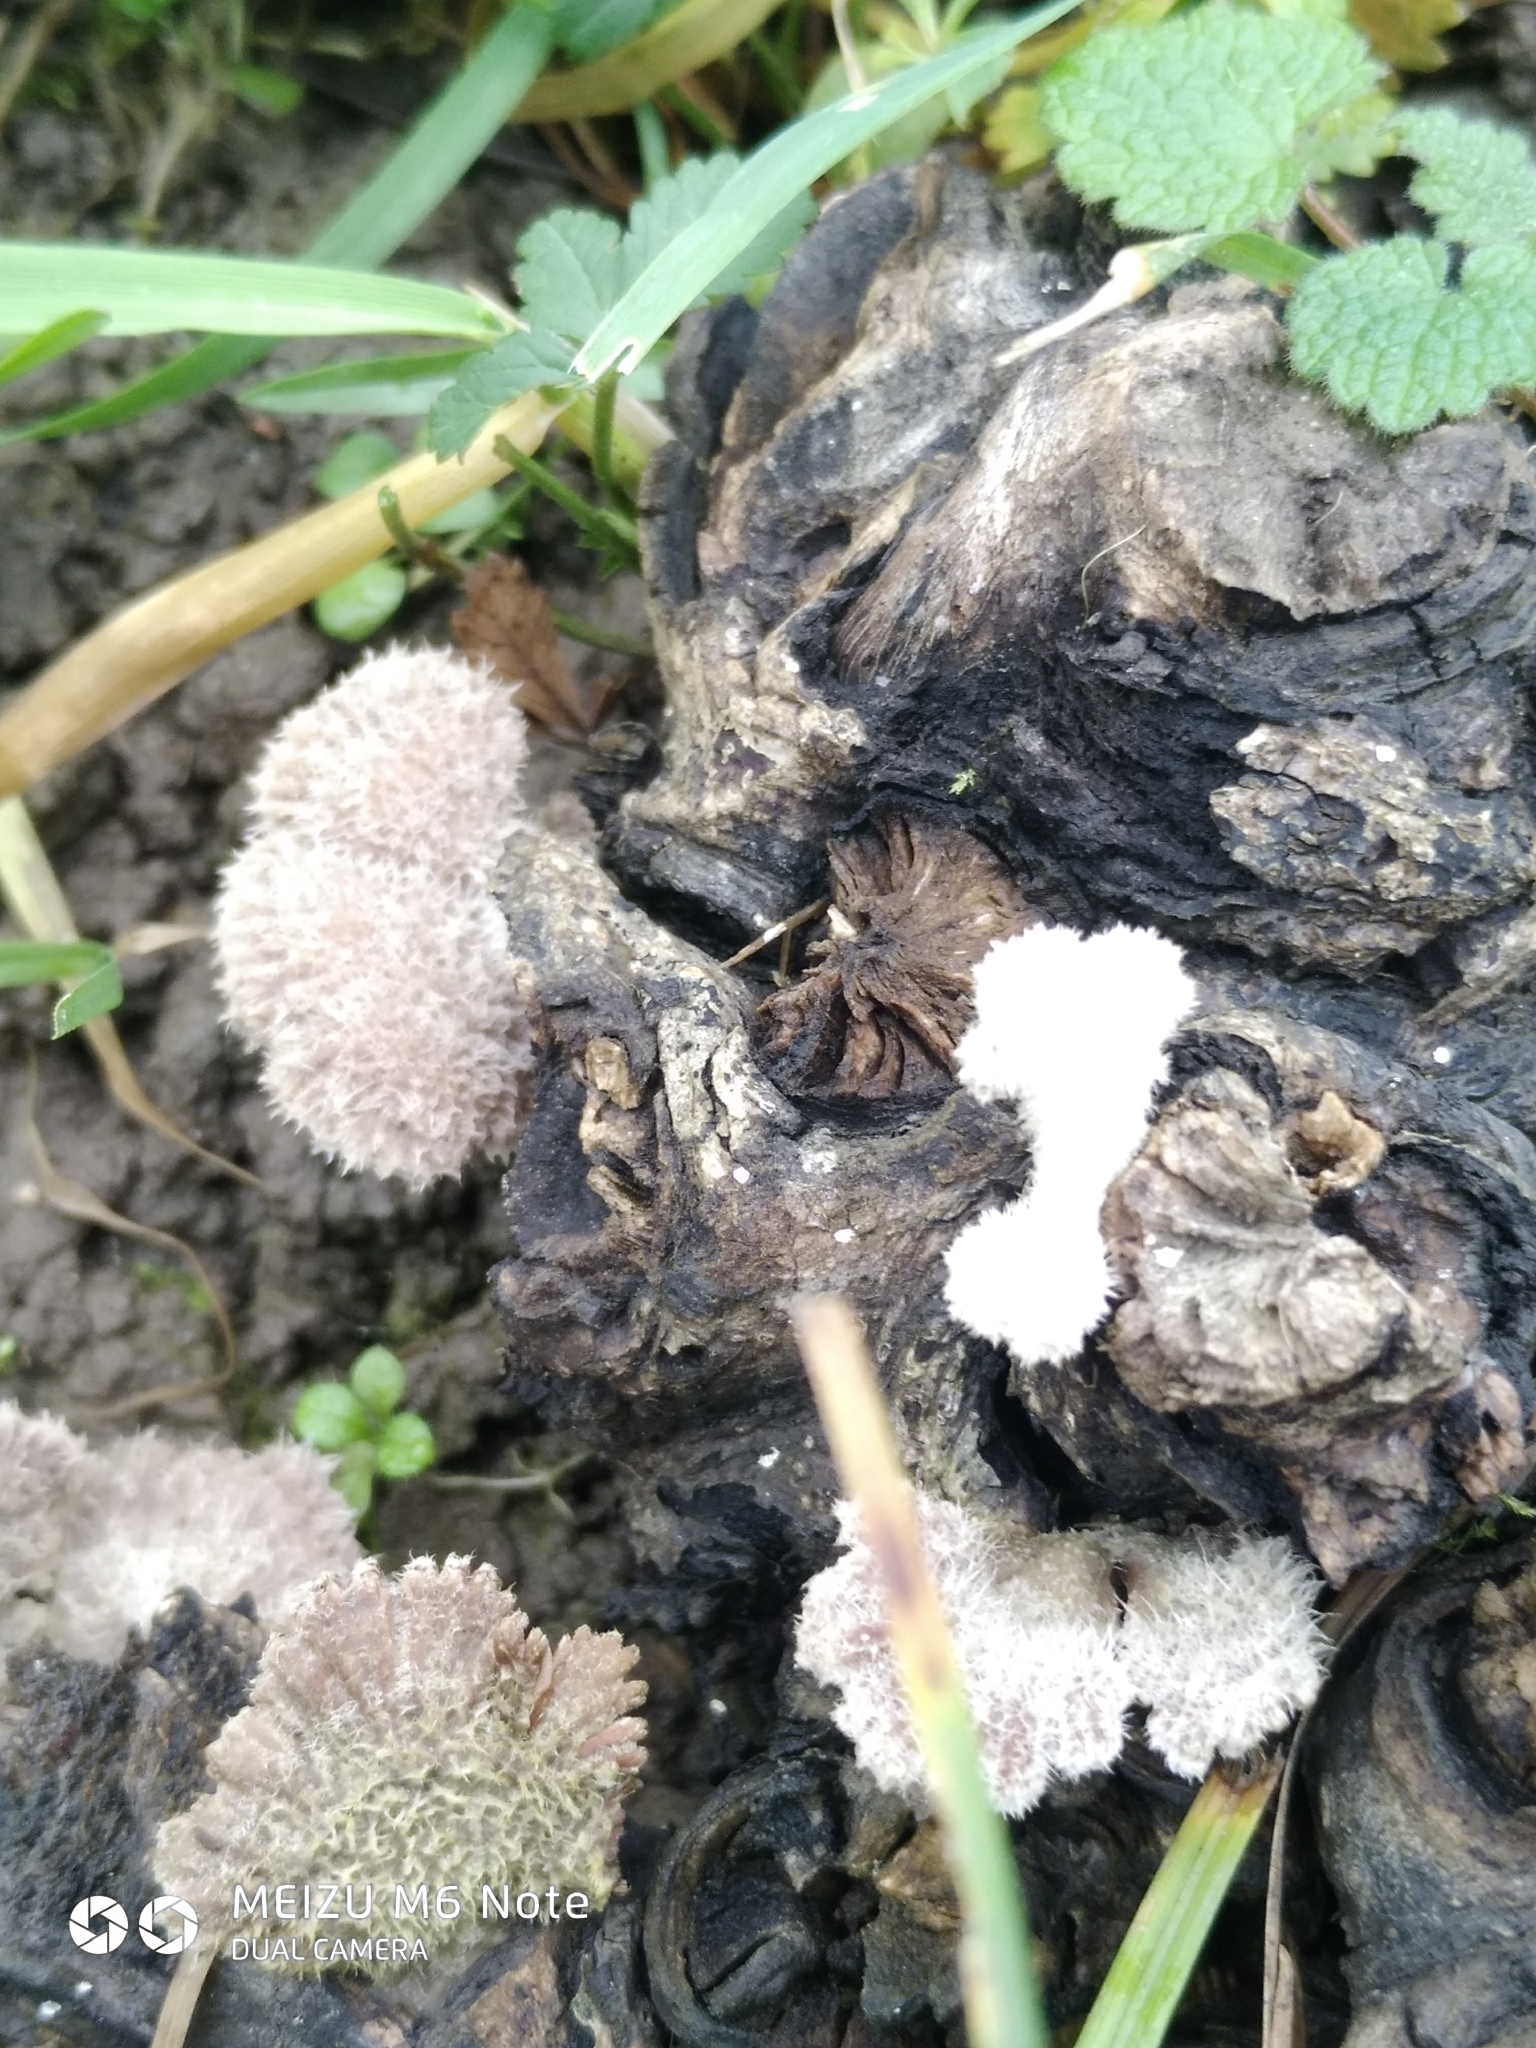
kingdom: Fungi
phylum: Basidiomycota
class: Agaricomycetes
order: Agaricales
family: Schizophyllaceae
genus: Schizophyllum
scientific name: Schizophyllum commune
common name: Common porecrust
